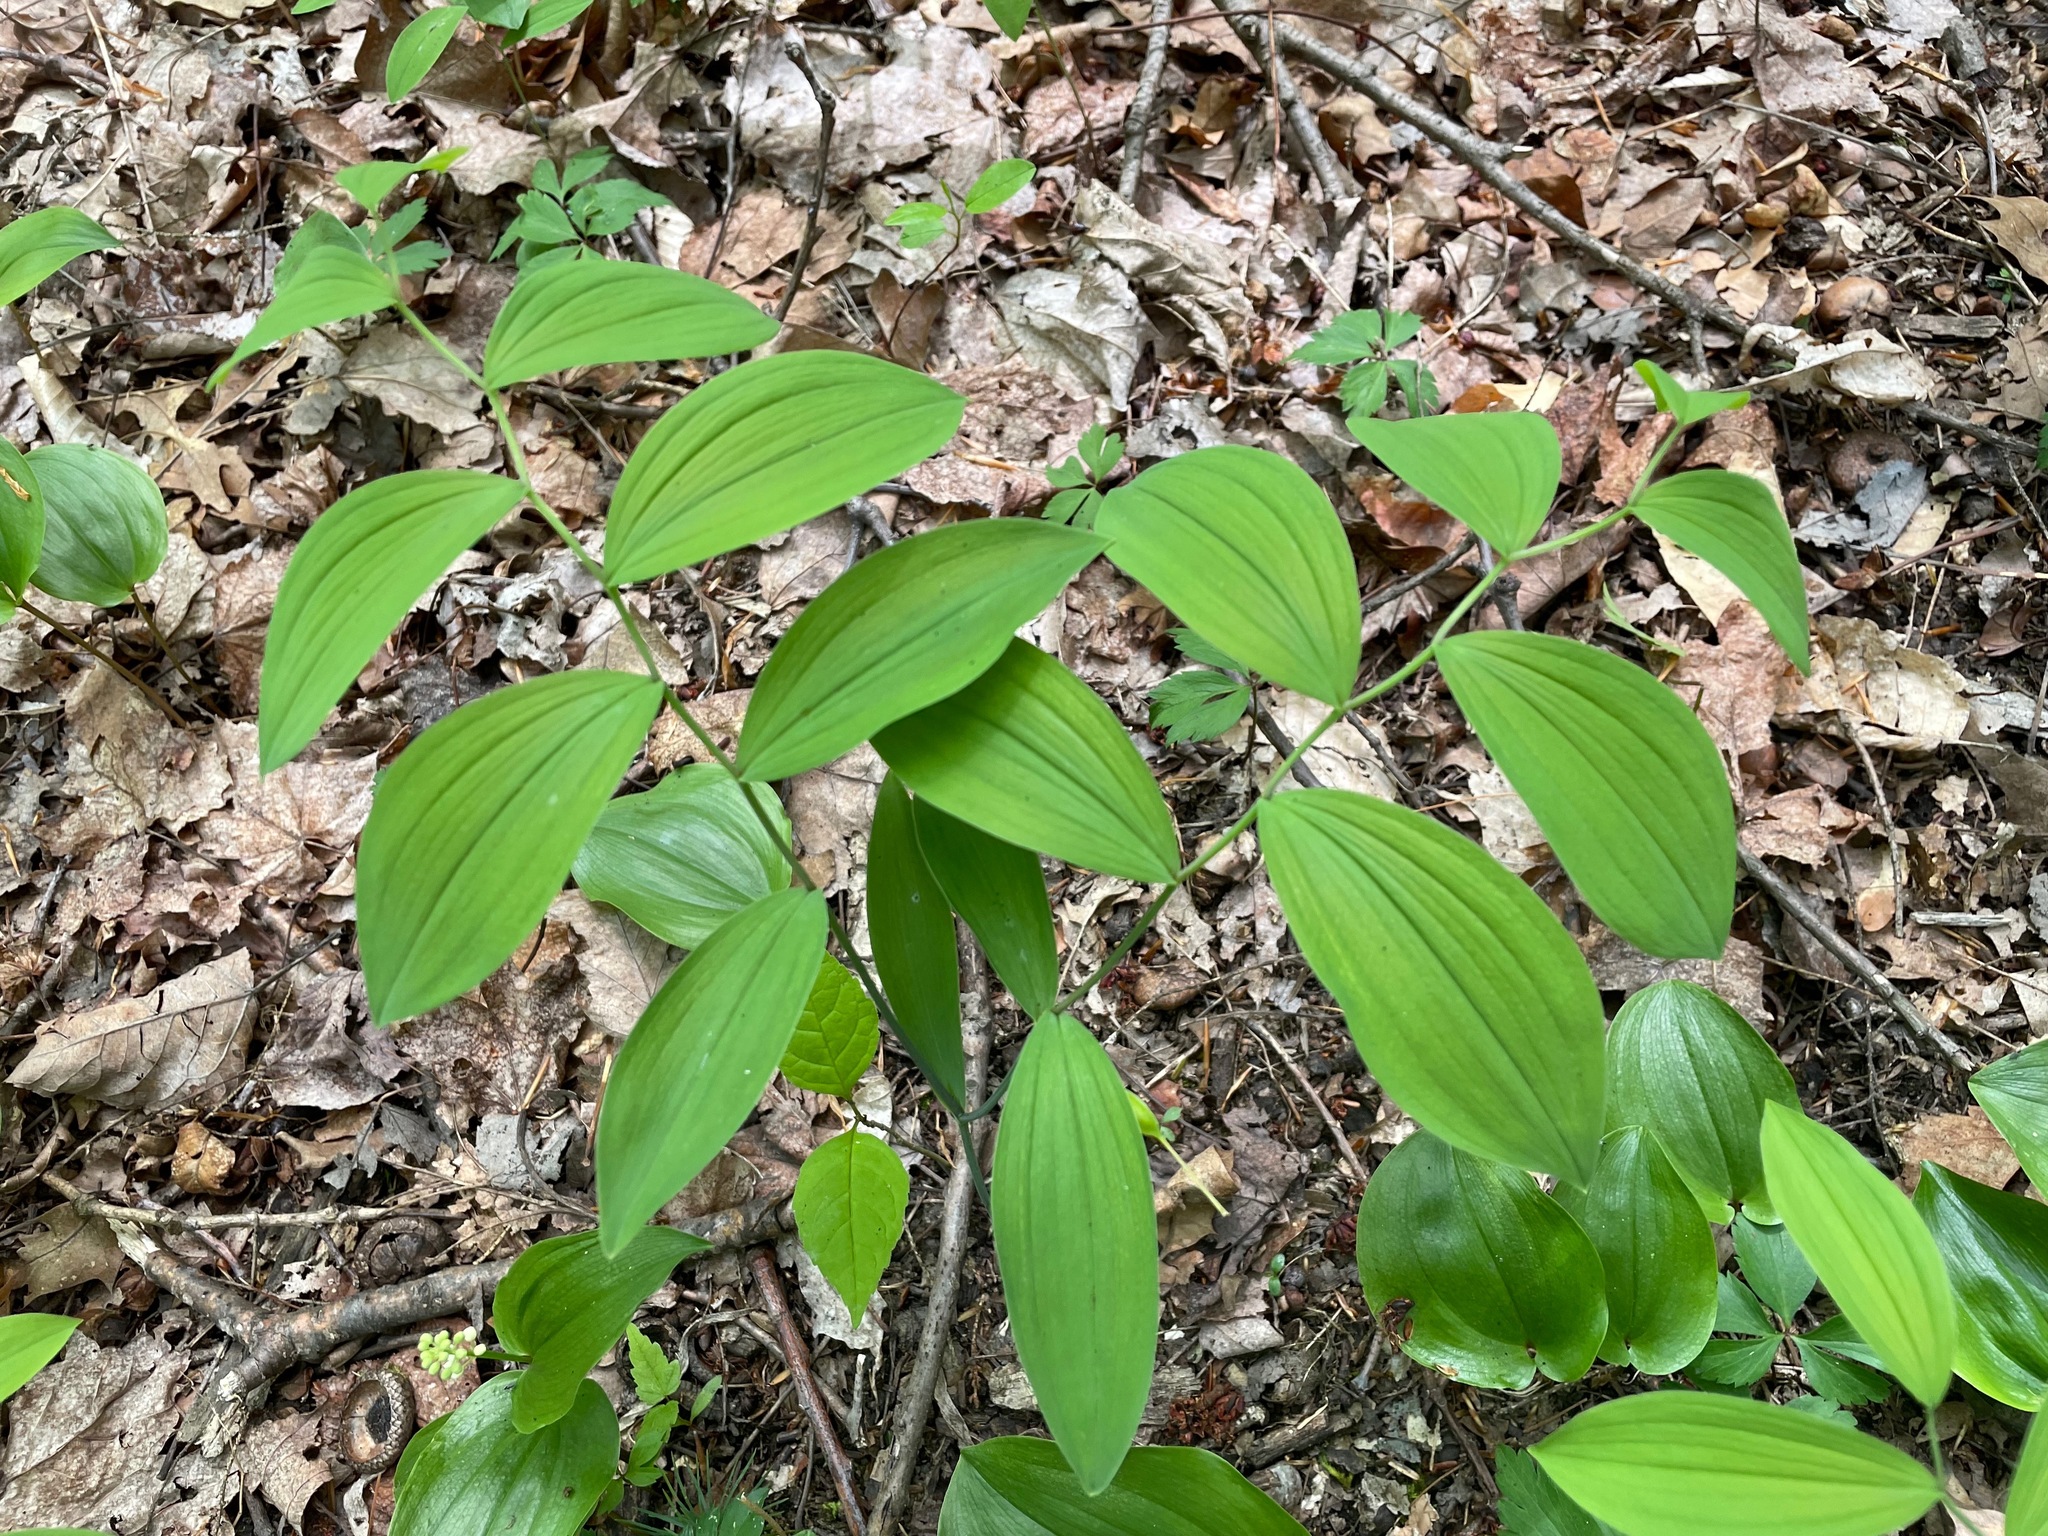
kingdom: Plantae
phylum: Tracheophyta
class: Liliopsida
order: Liliales
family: Colchicaceae
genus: Uvularia
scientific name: Uvularia sessilifolia
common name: Straw-lily
